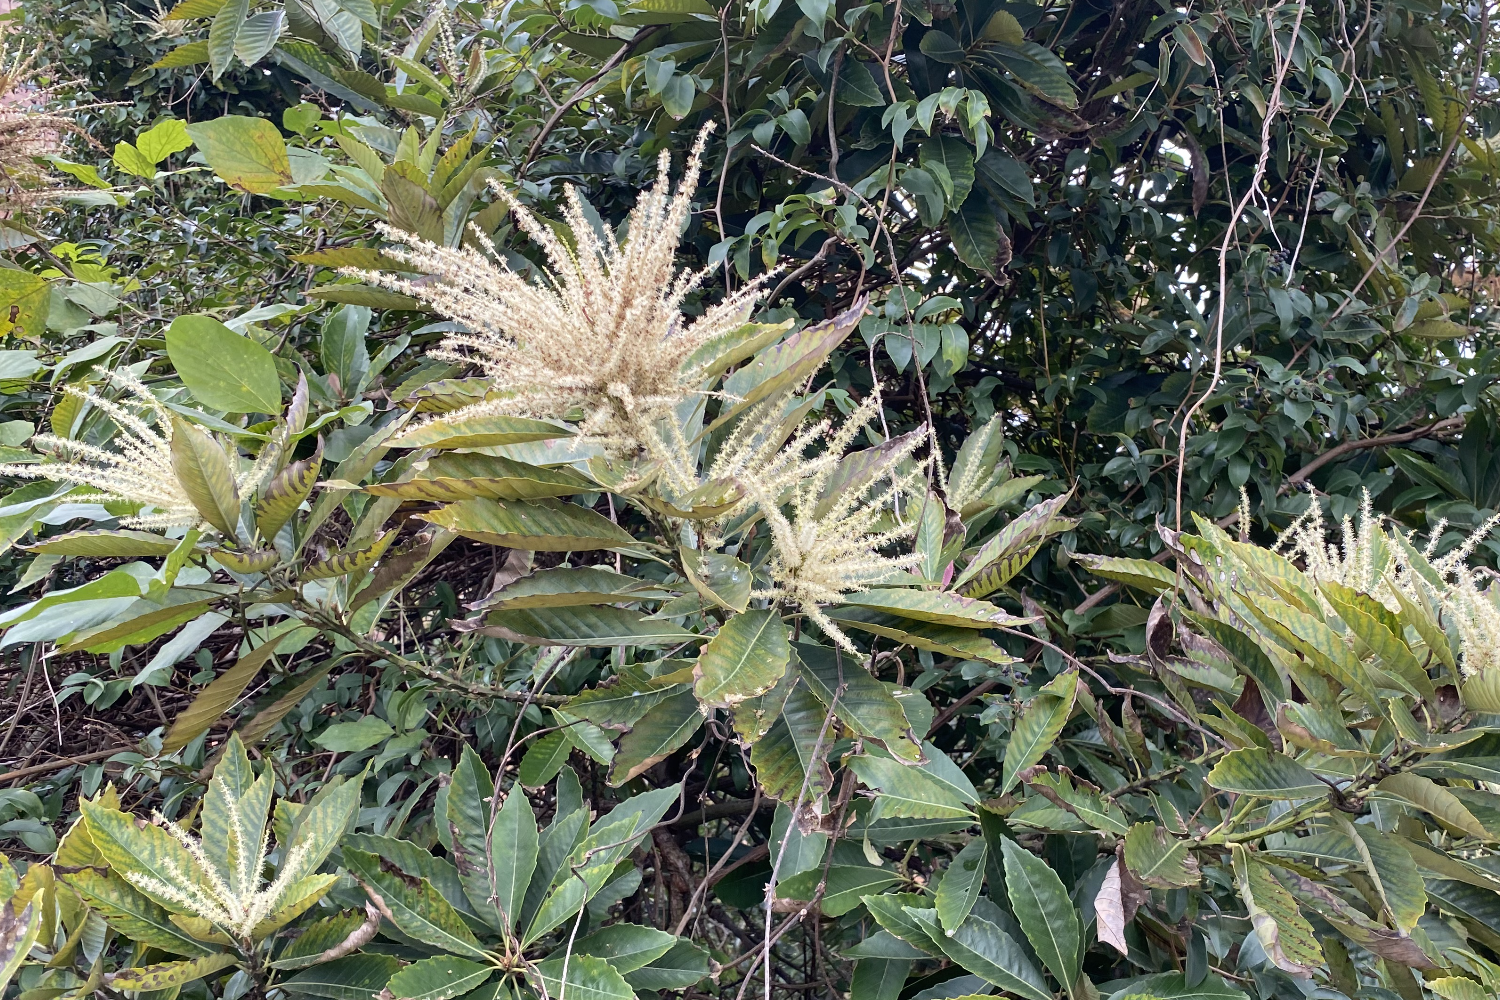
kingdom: Plantae
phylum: Tracheophyta
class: Magnoliopsida
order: Fagales
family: Fagaceae
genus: Castanopsis
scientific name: Castanopsis fissa
